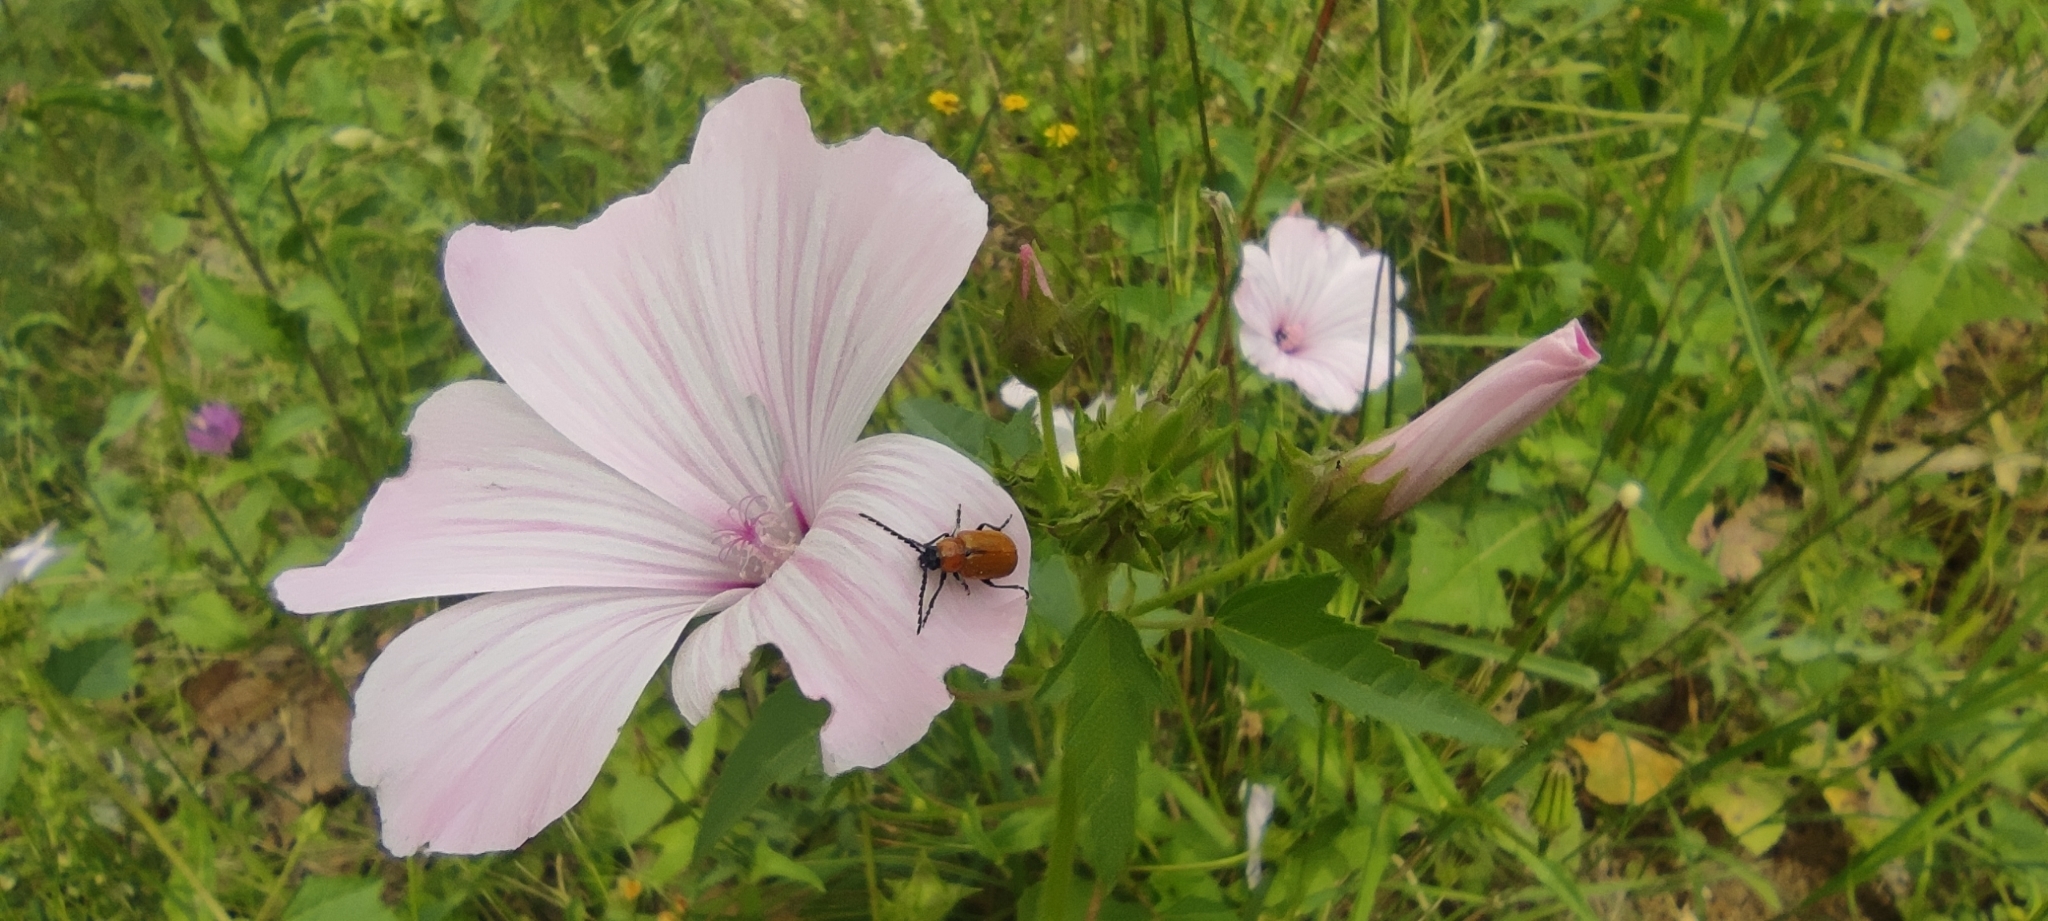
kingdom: Animalia
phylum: Arthropoda
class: Insecta
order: Coleoptera
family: Chrysomelidae
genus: Exosoma
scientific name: Exosoma lusitanicum
